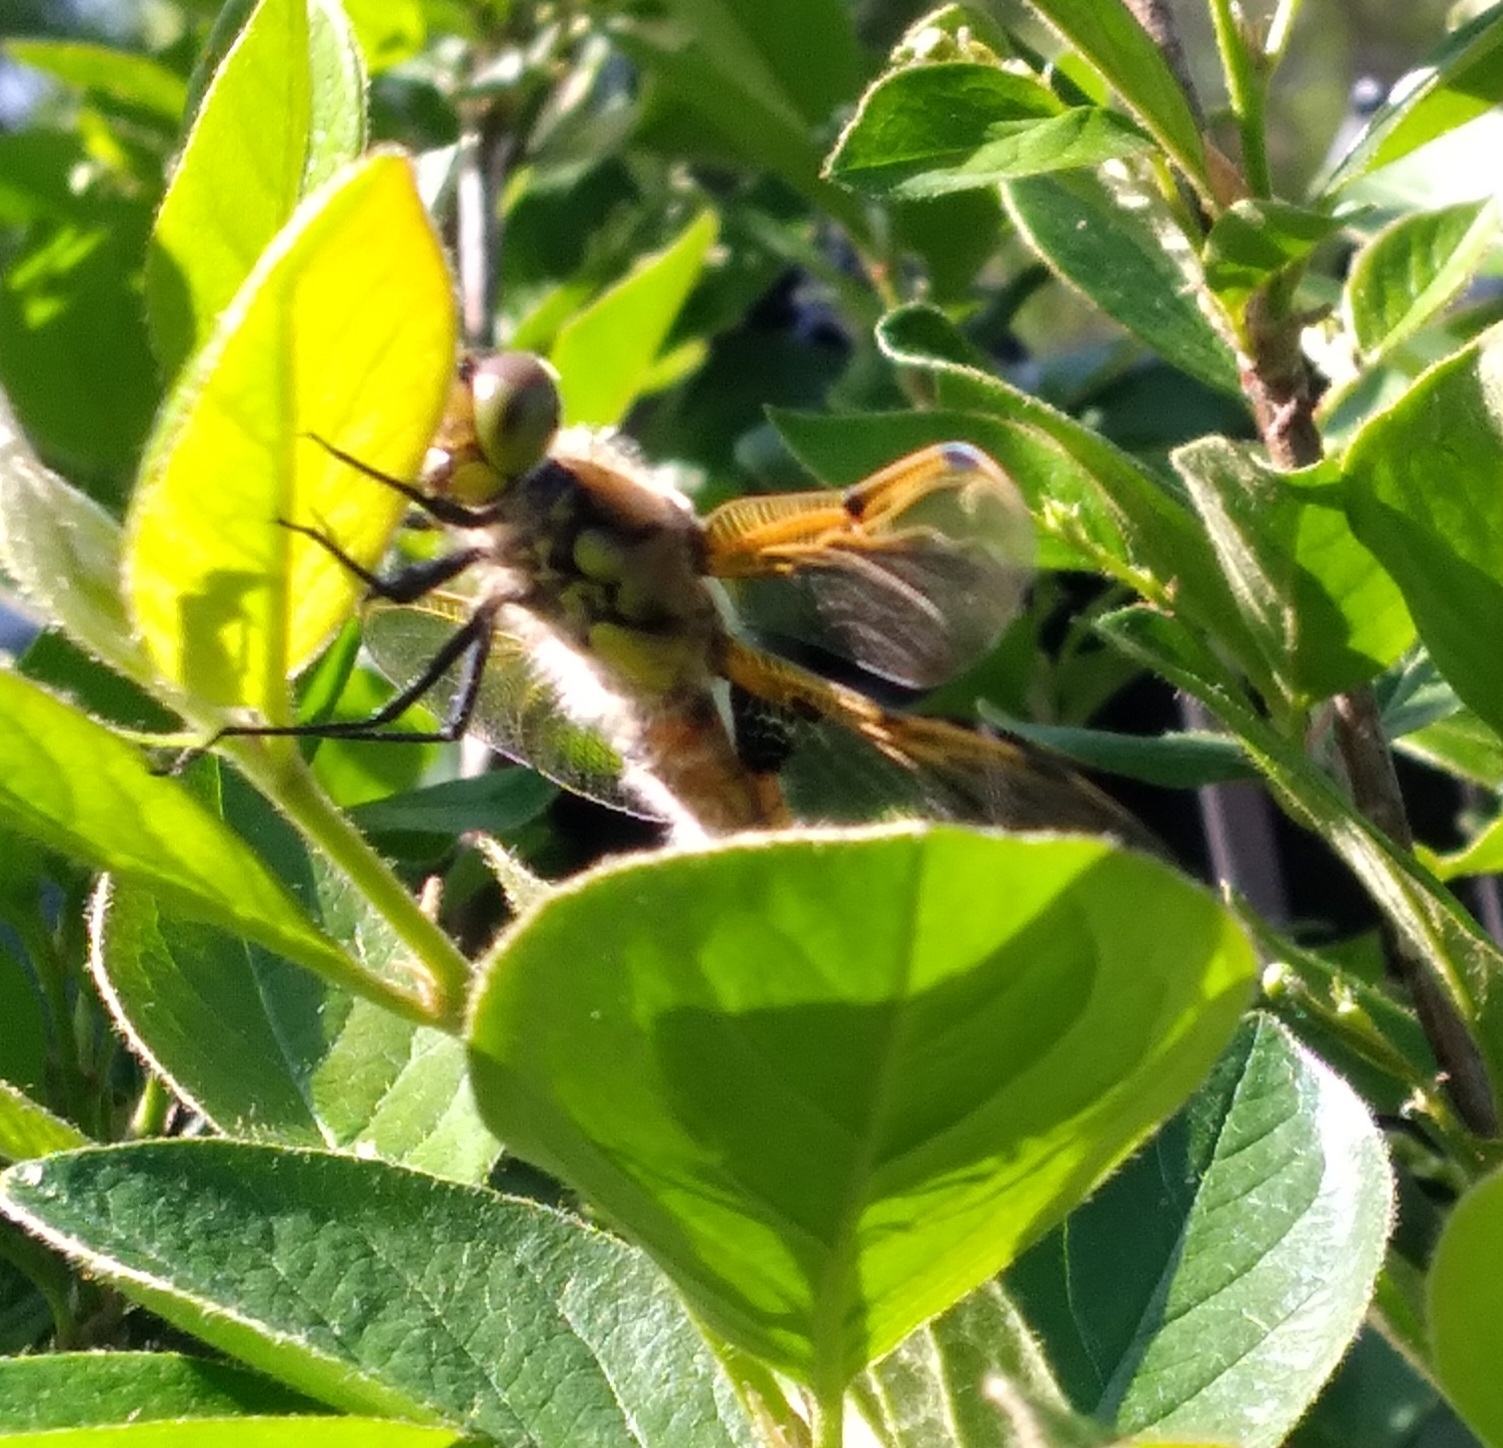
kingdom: Animalia
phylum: Arthropoda
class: Insecta
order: Odonata
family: Libellulidae
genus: Libellula
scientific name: Libellula quadrimaculata
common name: Four-spotted chaser
